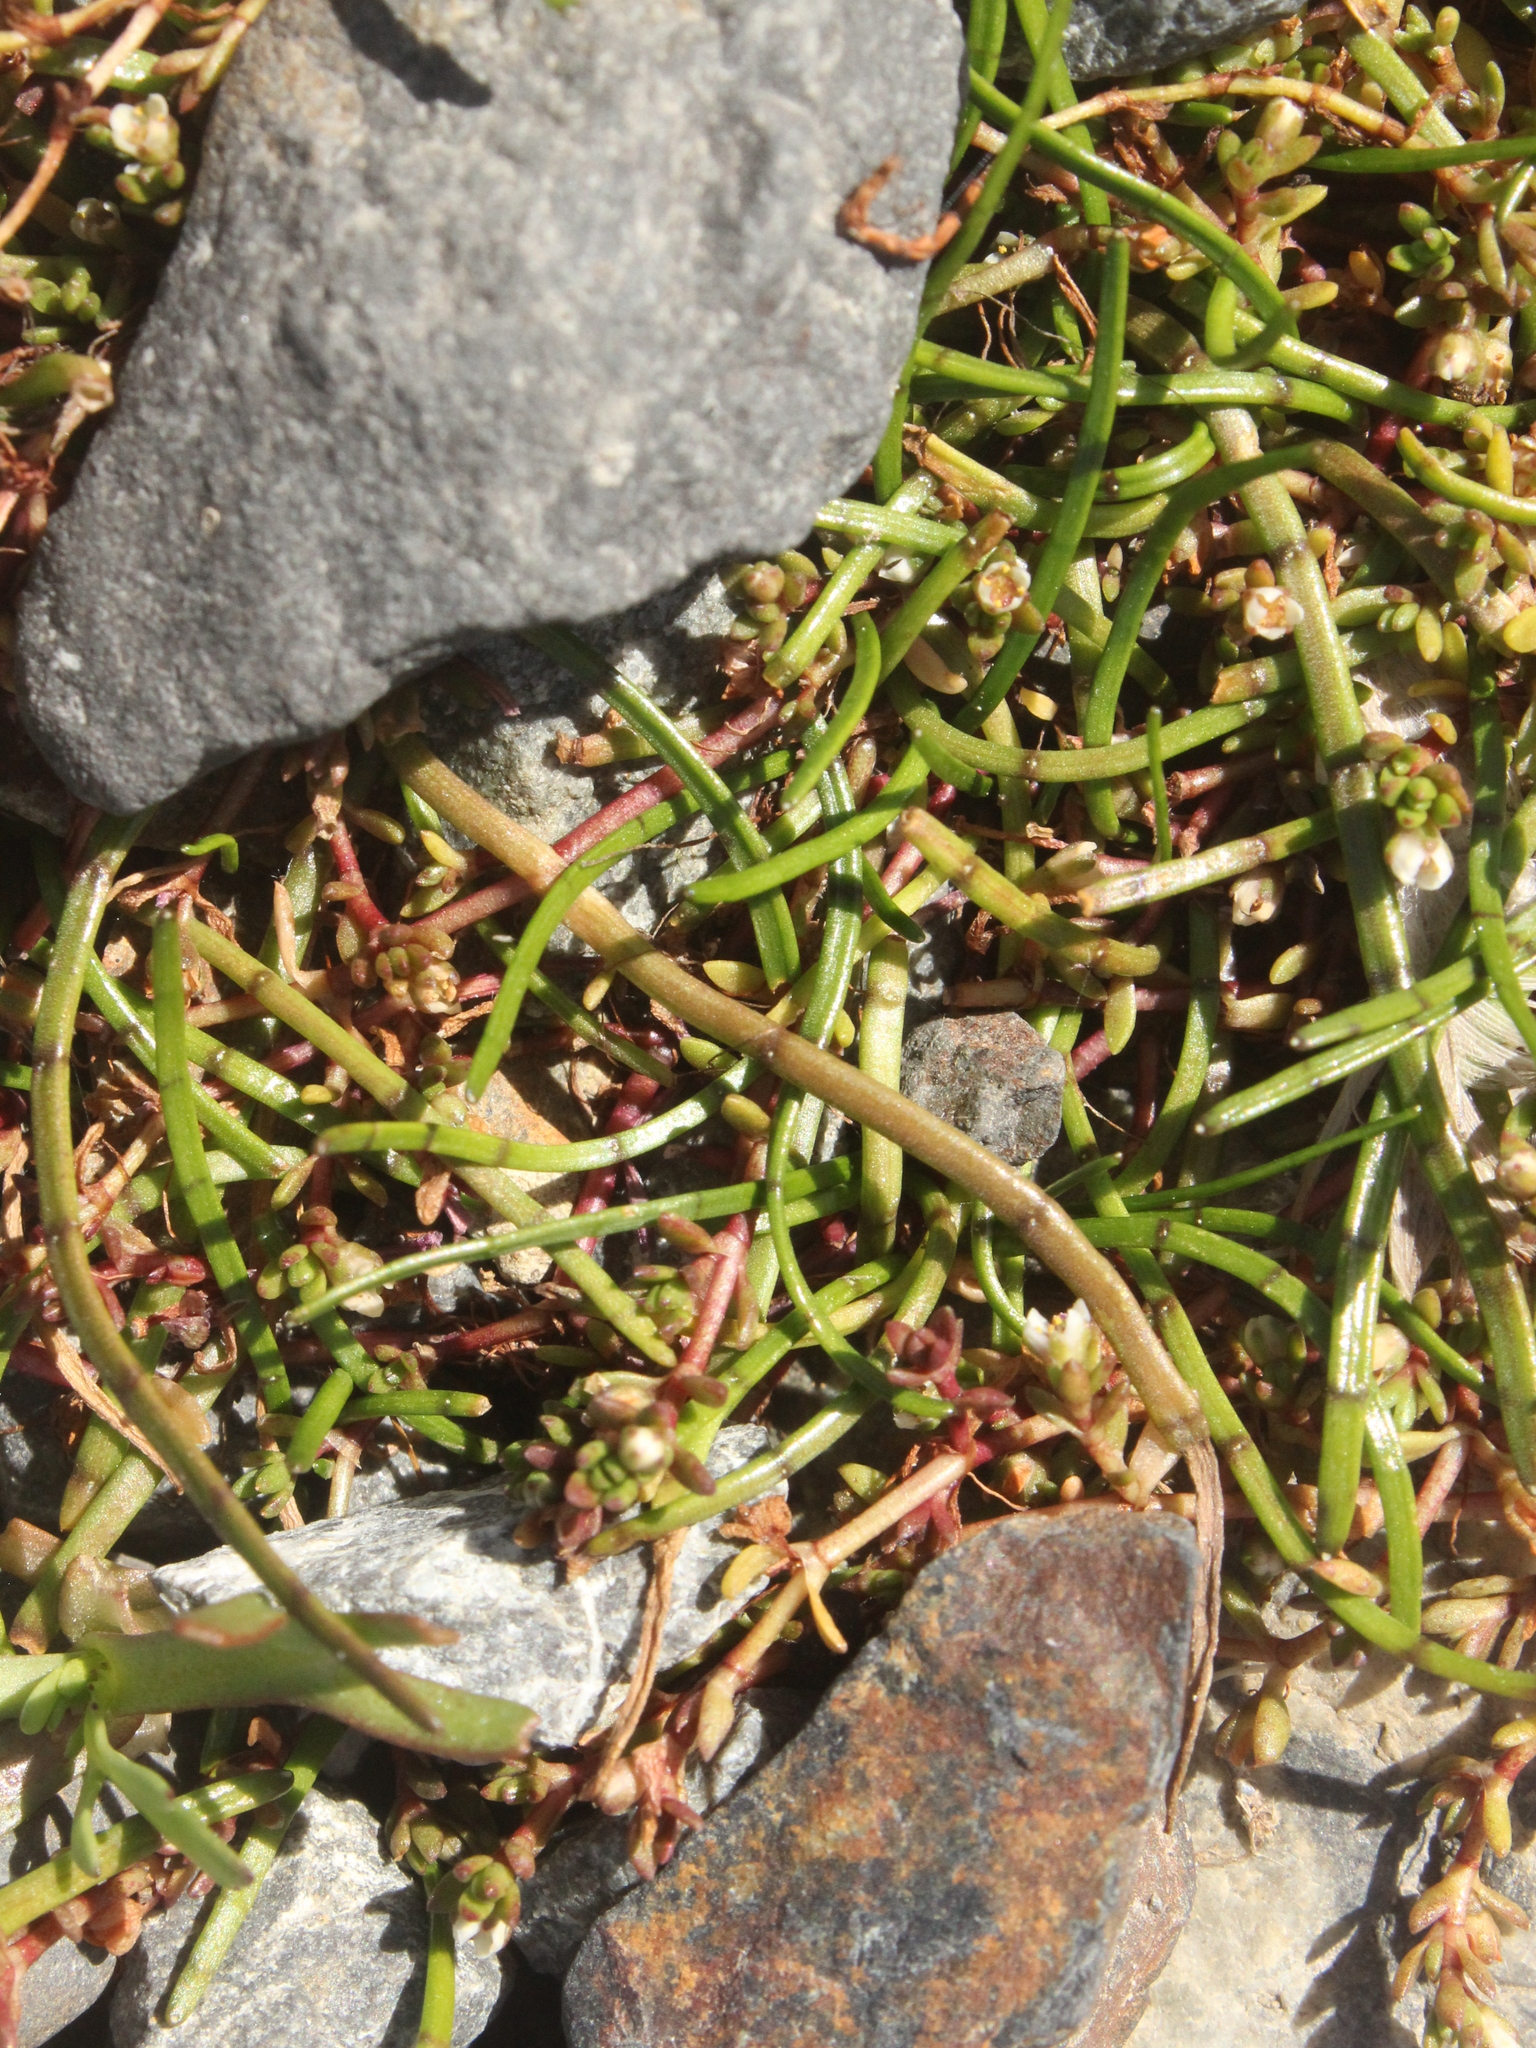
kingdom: Plantae
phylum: Tracheophyta
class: Magnoliopsida
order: Apiales
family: Apiaceae
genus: Lilaeopsis
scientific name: Lilaeopsis novae-zelandiae
